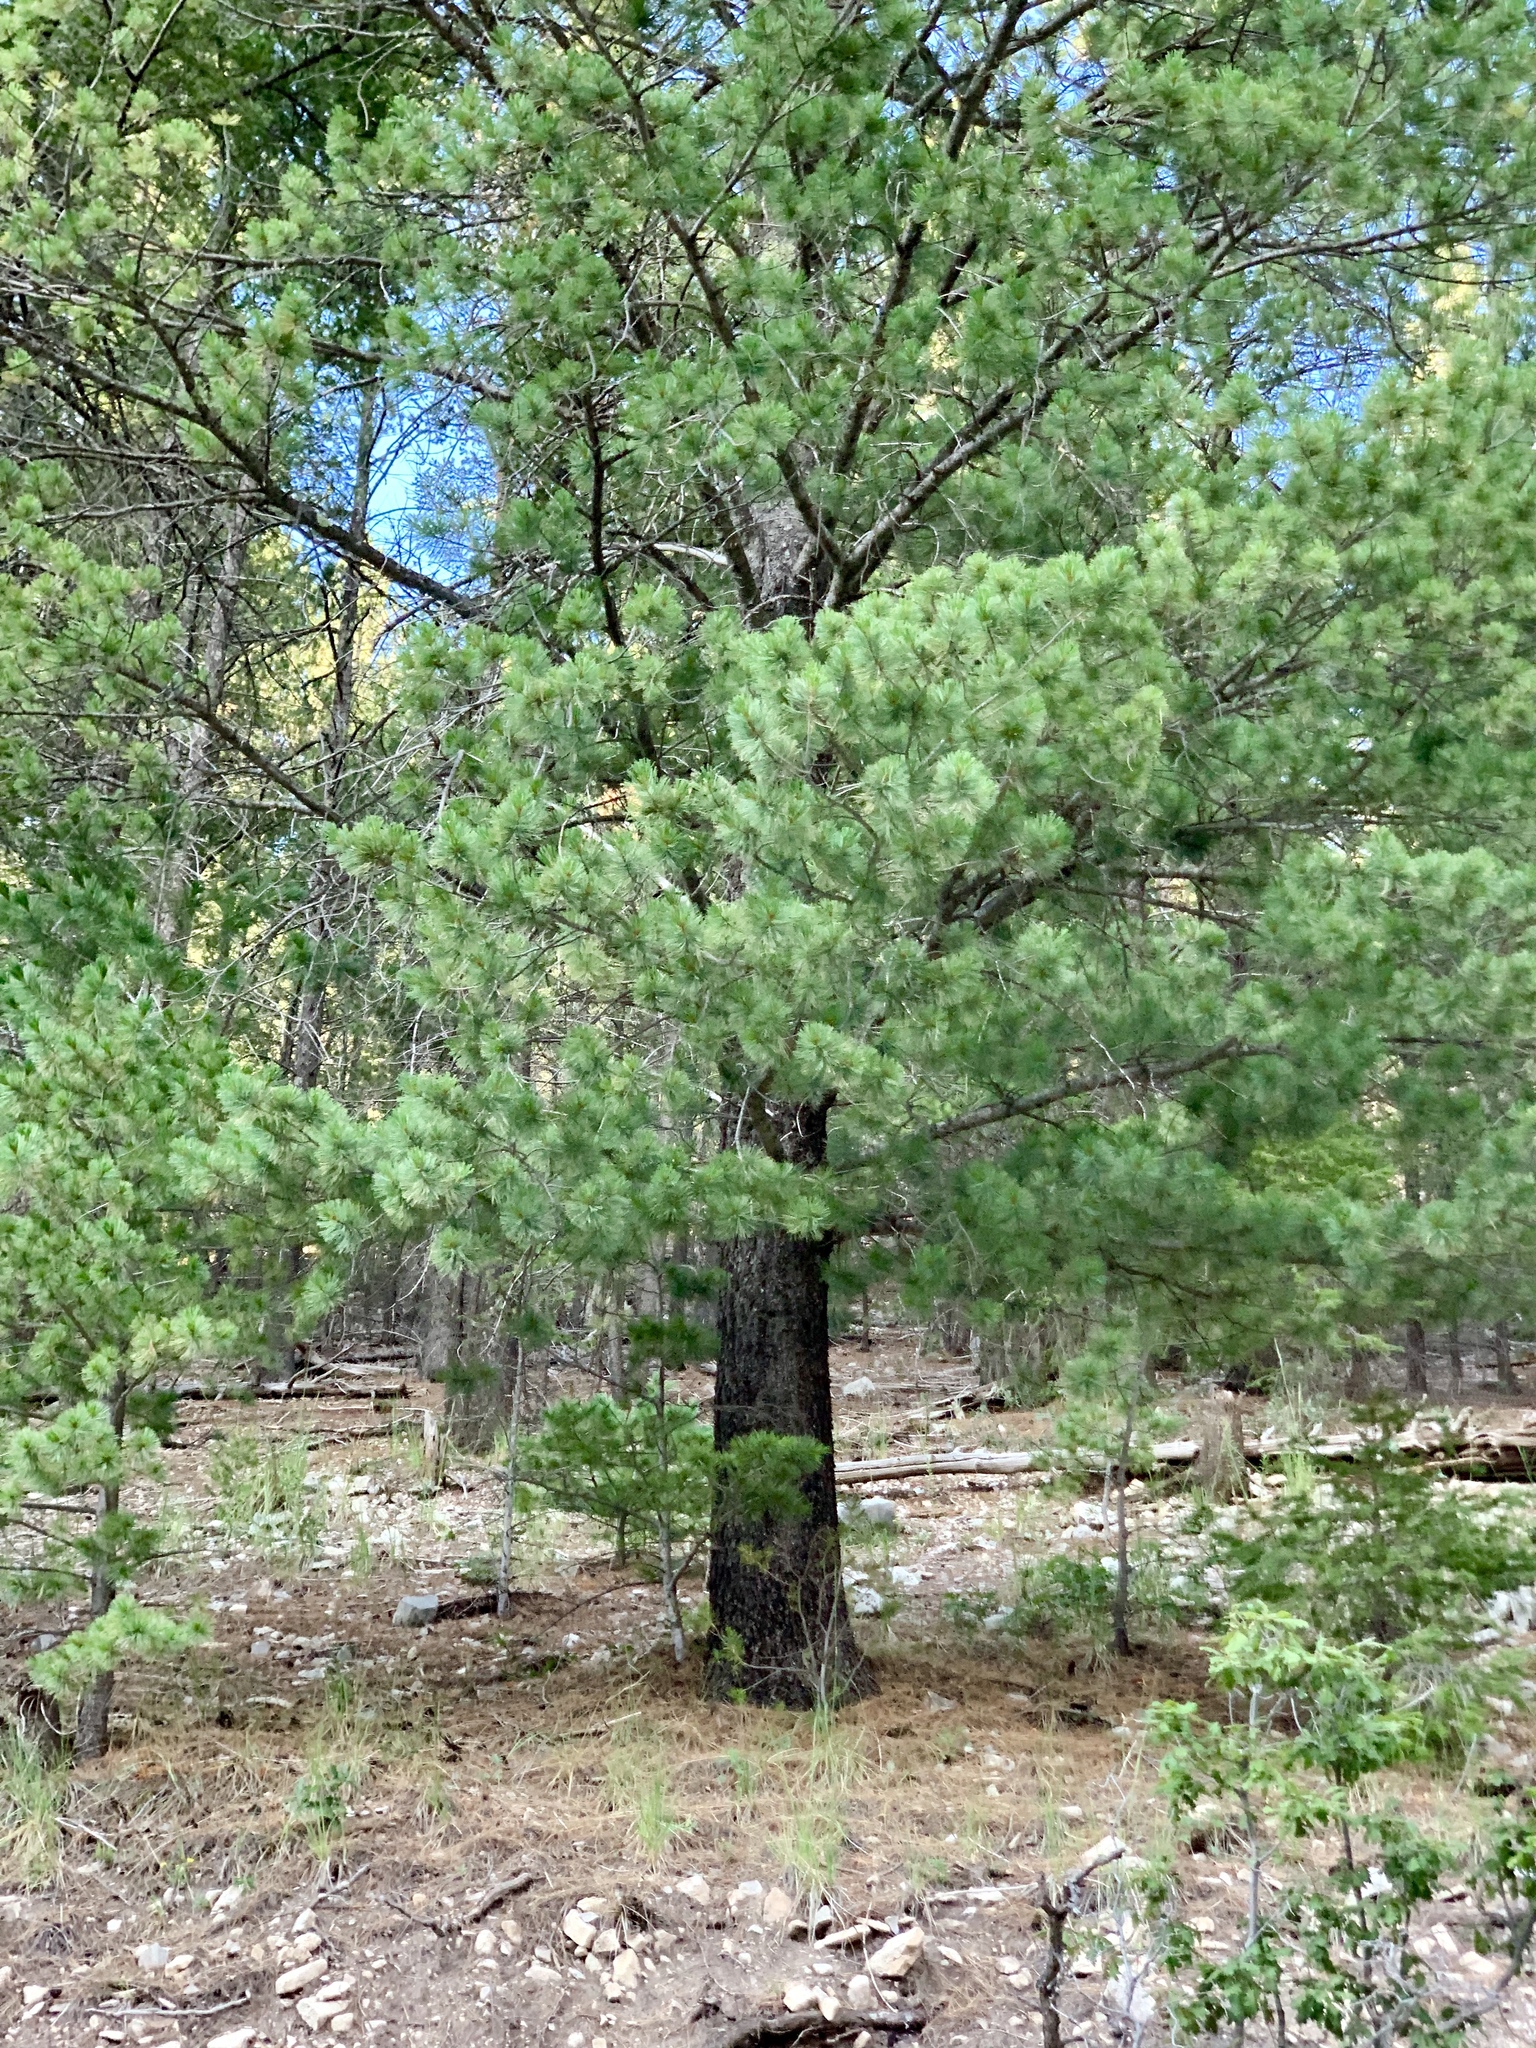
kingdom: Plantae
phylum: Tracheophyta
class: Pinopsida
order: Pinales
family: Pinaceae
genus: Pinus
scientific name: Pinus strobiformis
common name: Southwestern white pine
